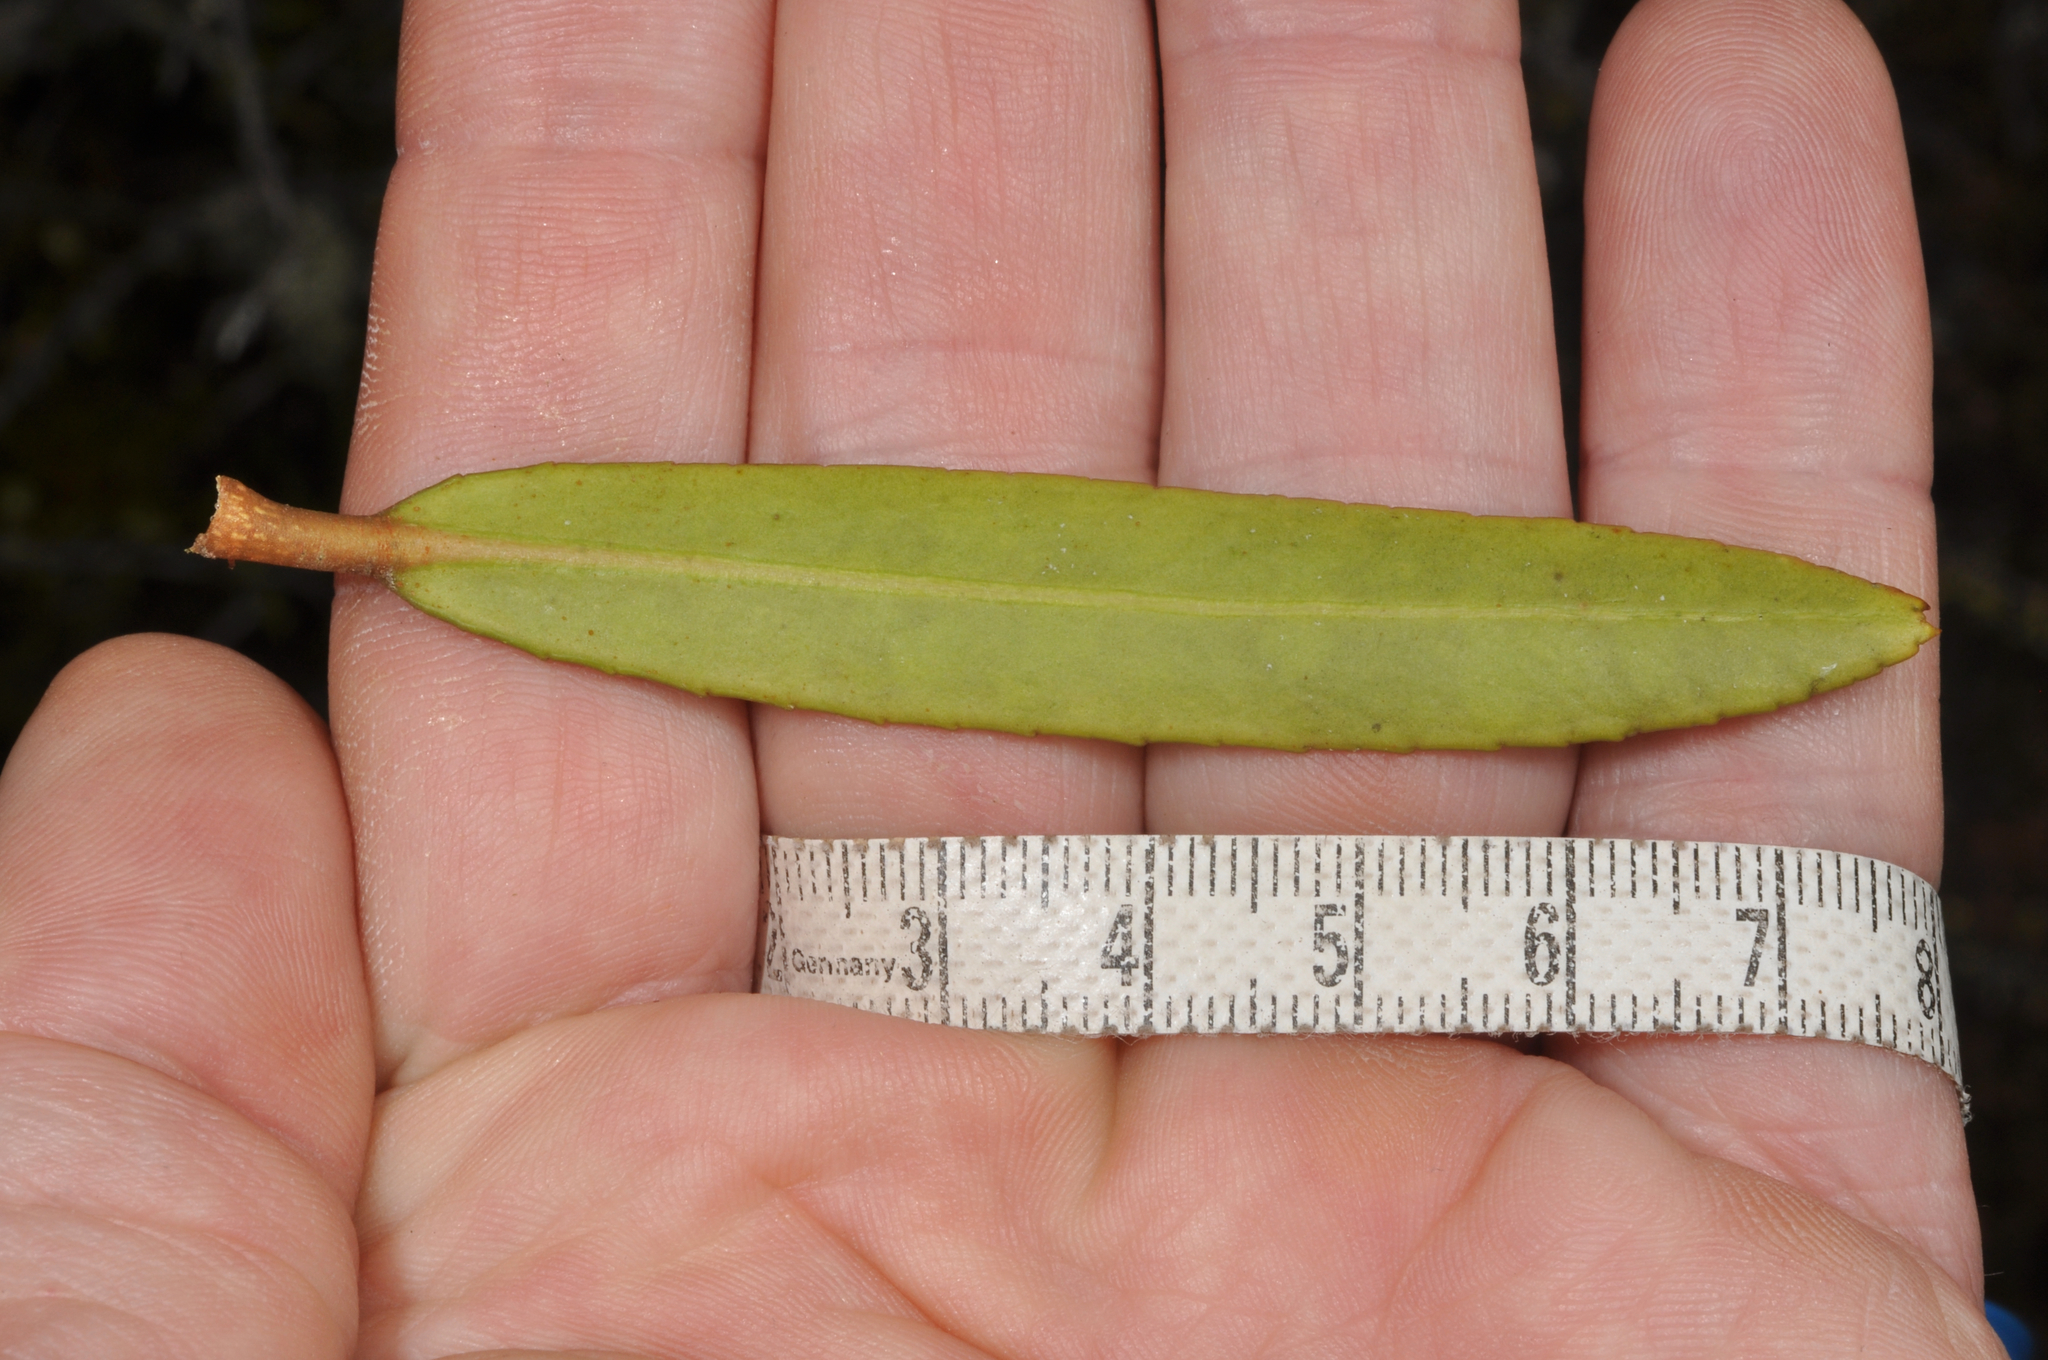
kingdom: Plantae
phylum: Tracheophyta
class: Magnoliopsida
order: Apiales
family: Araliaceae
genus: Pseudopanax
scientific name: Pseudopanax linearis
